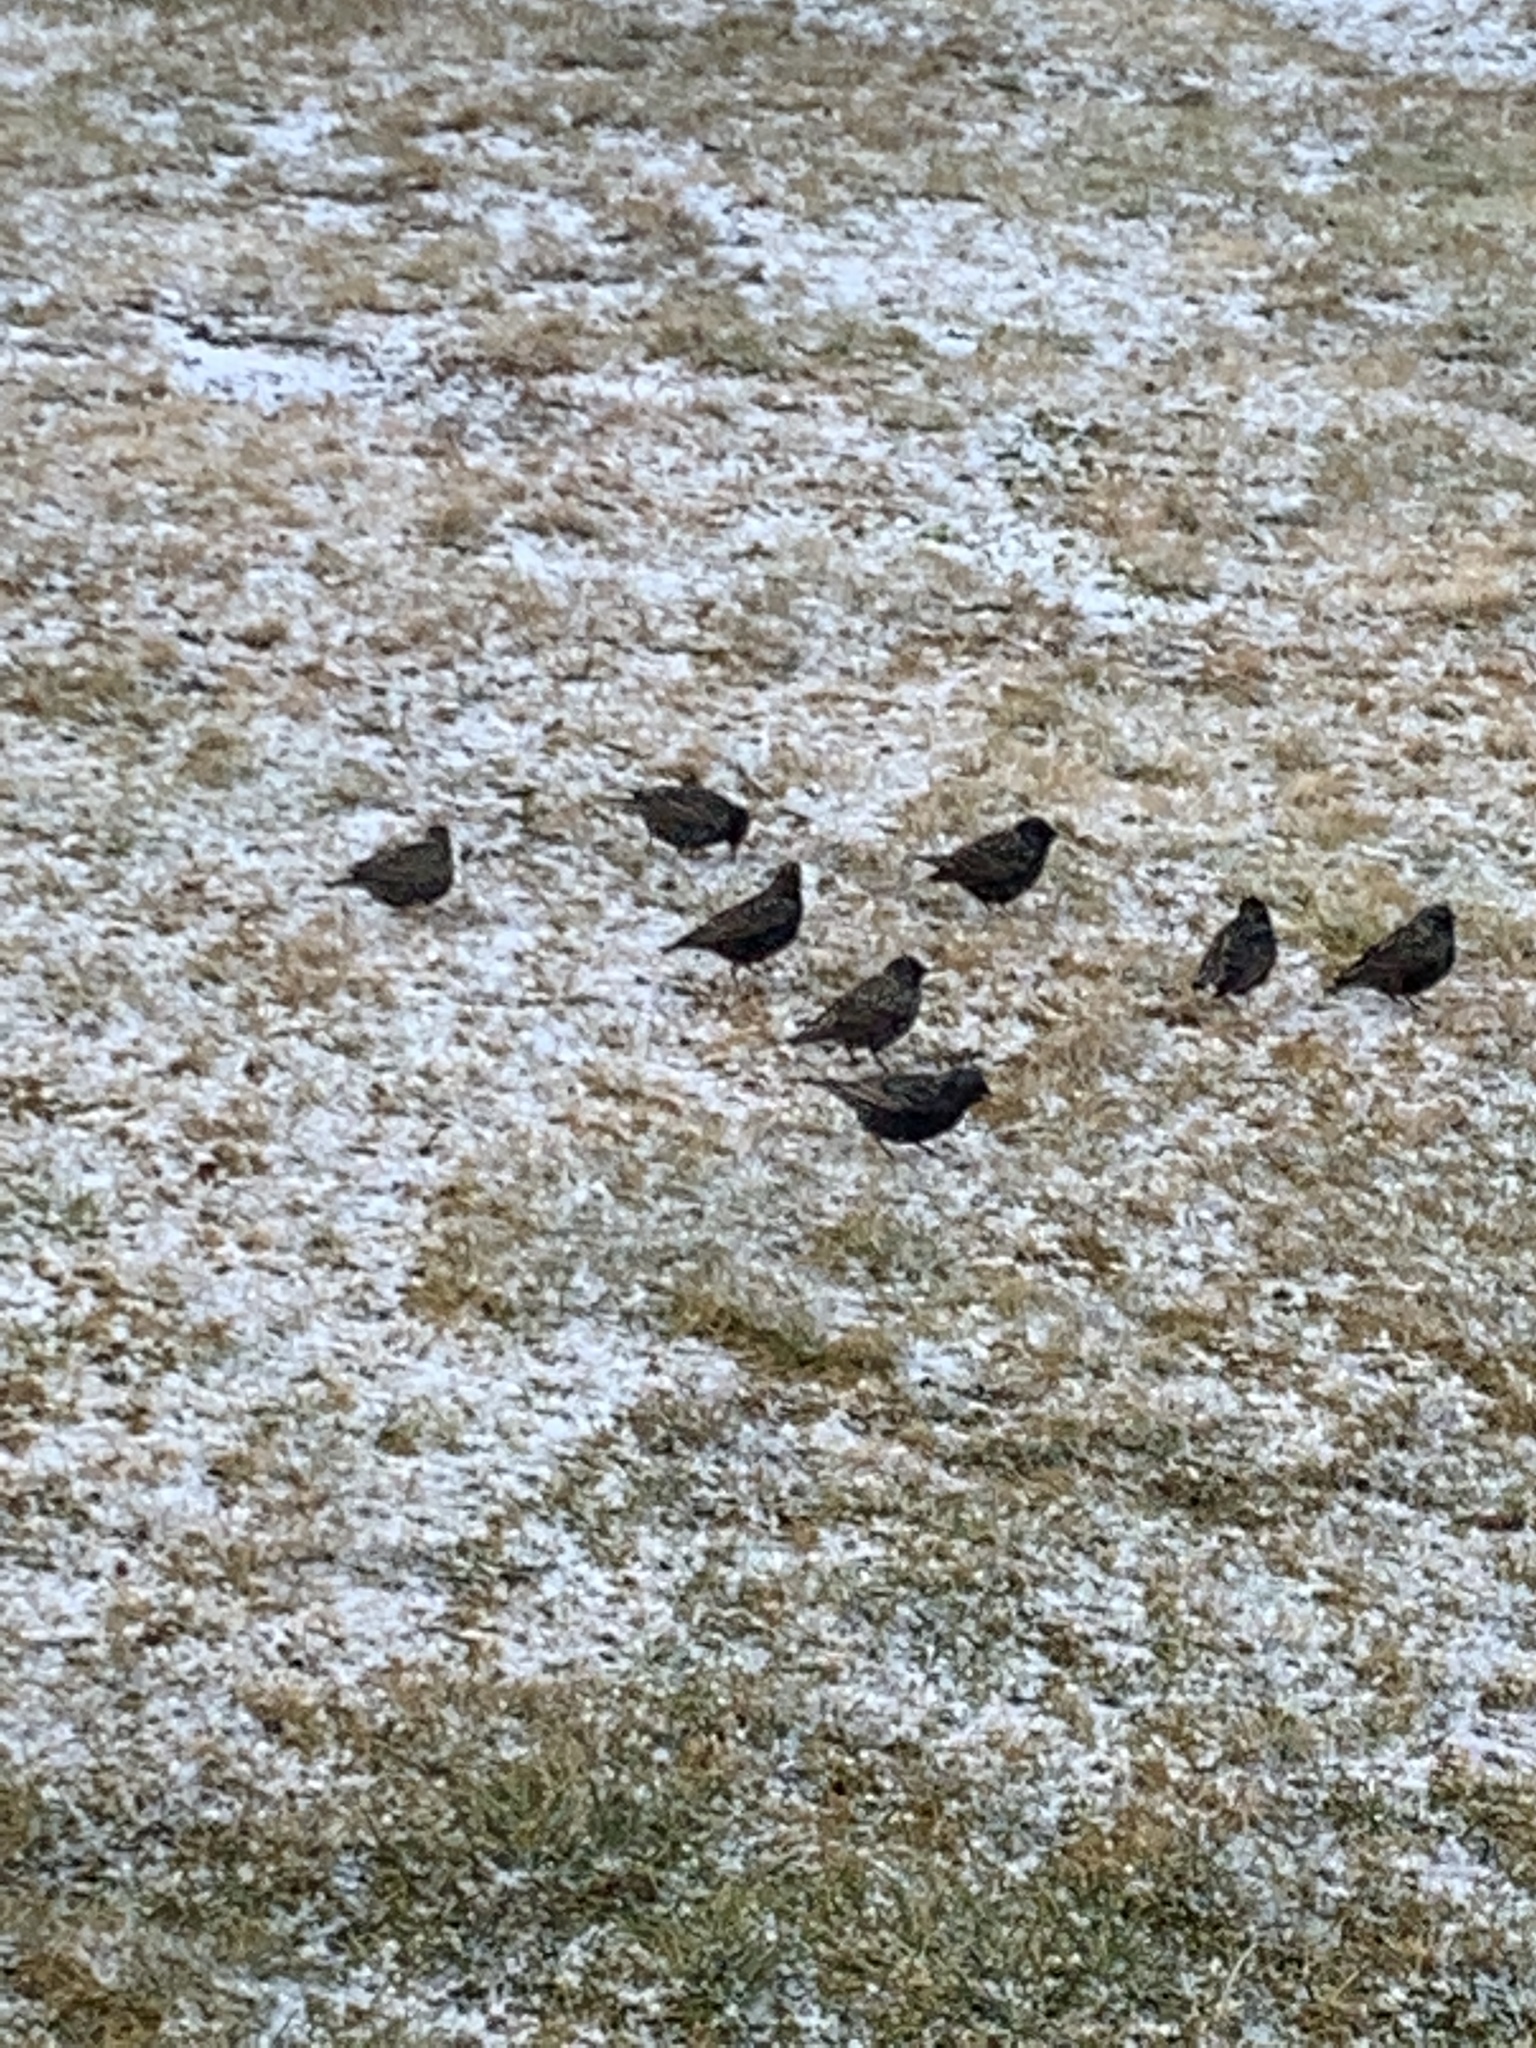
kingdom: Animalia
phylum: Chordata
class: Aves
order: Passeriformes
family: Sturnidae
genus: Sturnus
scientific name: Sturnus vulgaris
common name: Common starling
